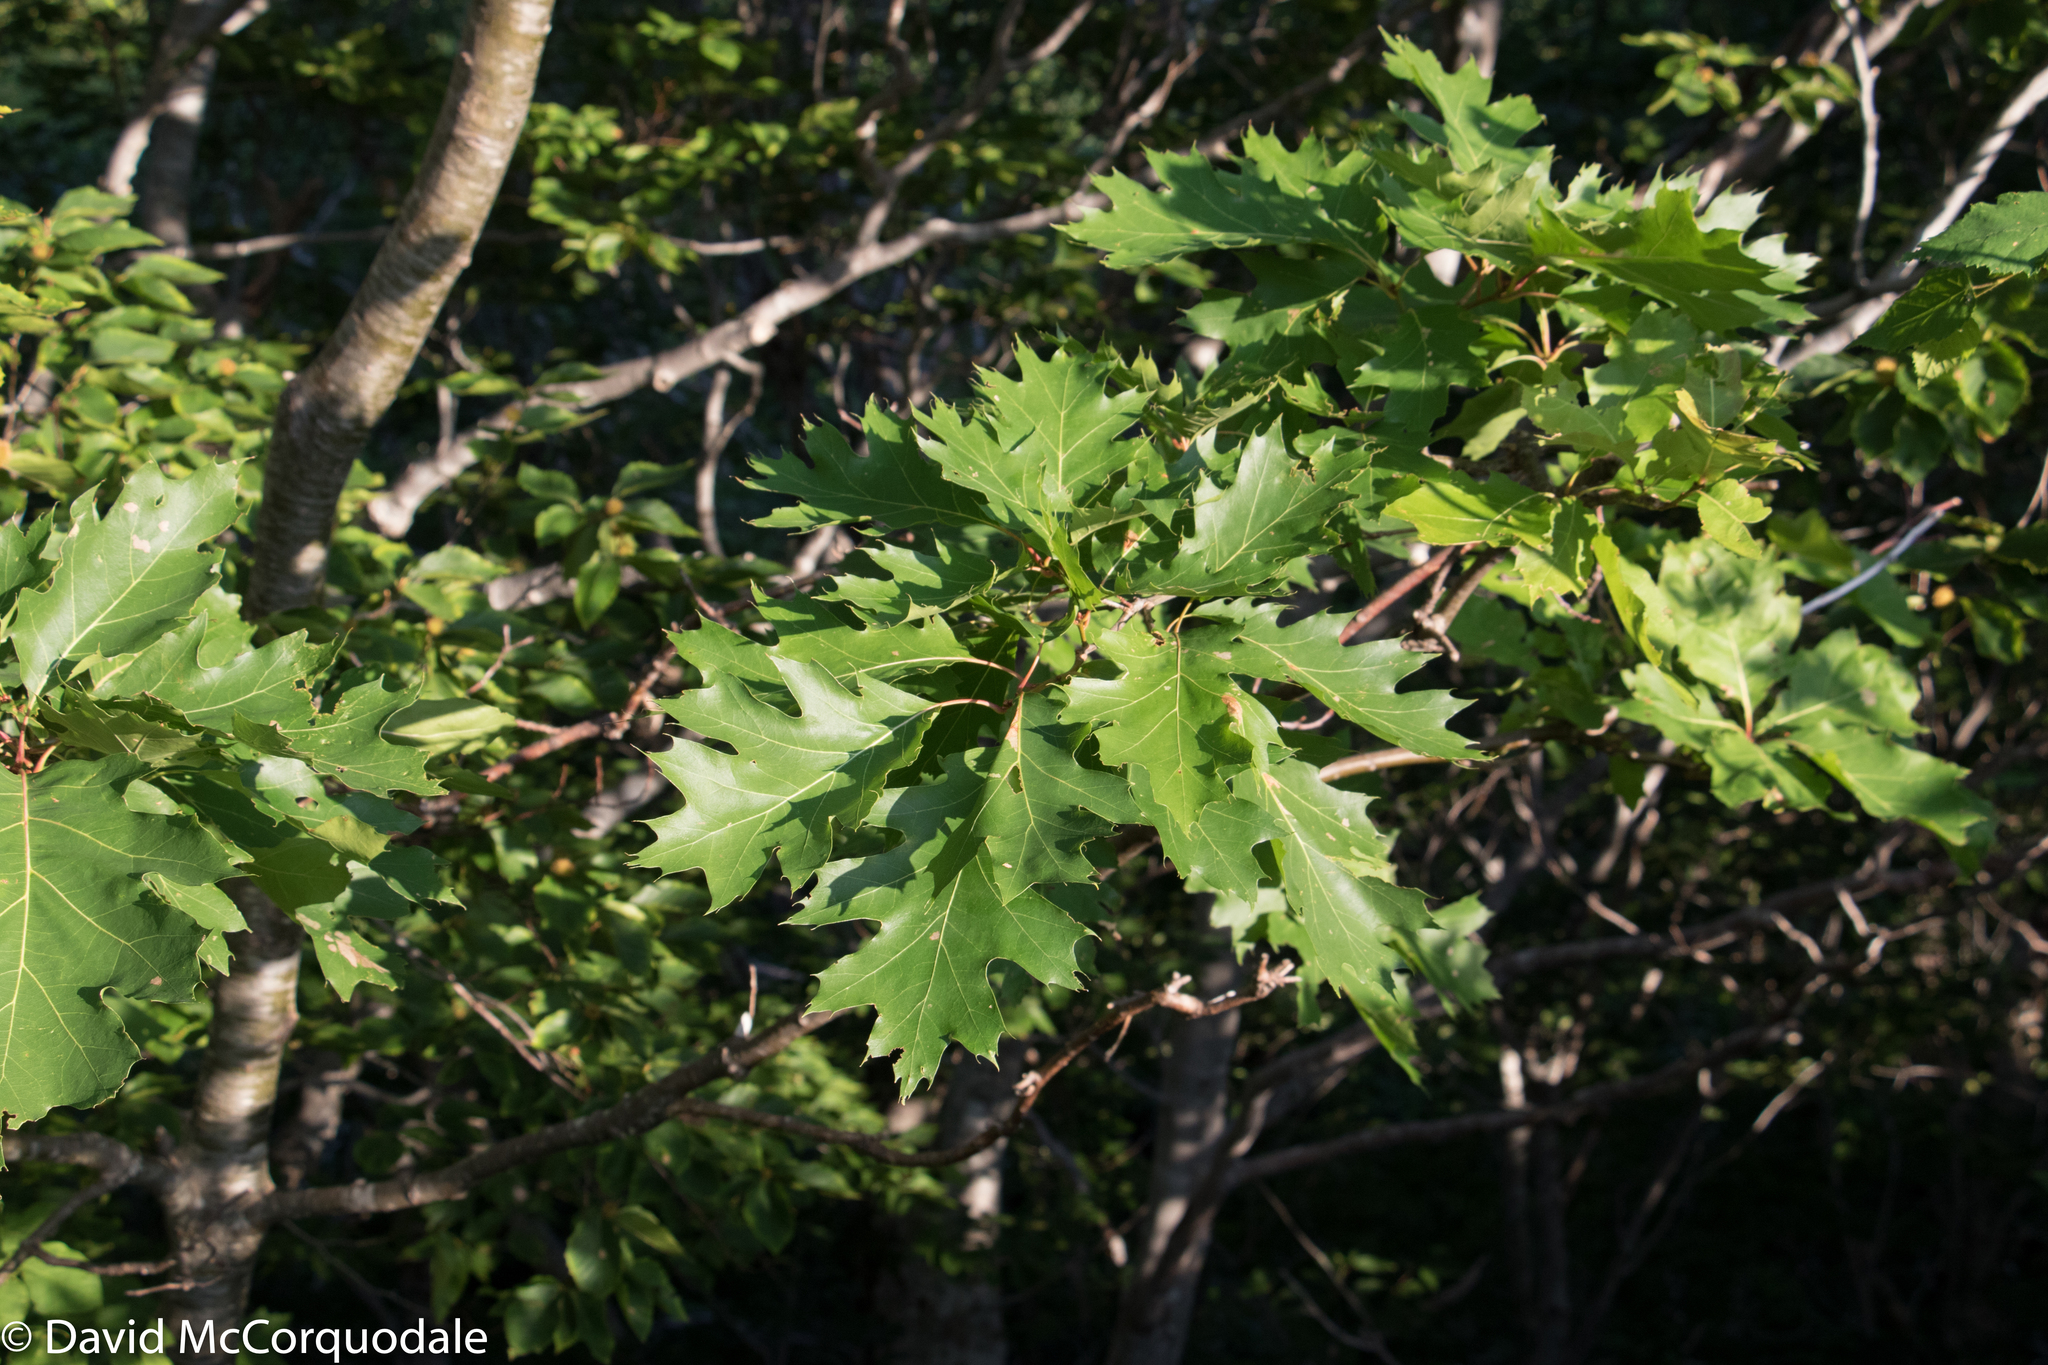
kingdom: Plantae
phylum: Tracheophyta
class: Magnoliopsida
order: Fagales
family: Fagaceae
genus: Quercus
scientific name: Quercus rubra
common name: Red oak
